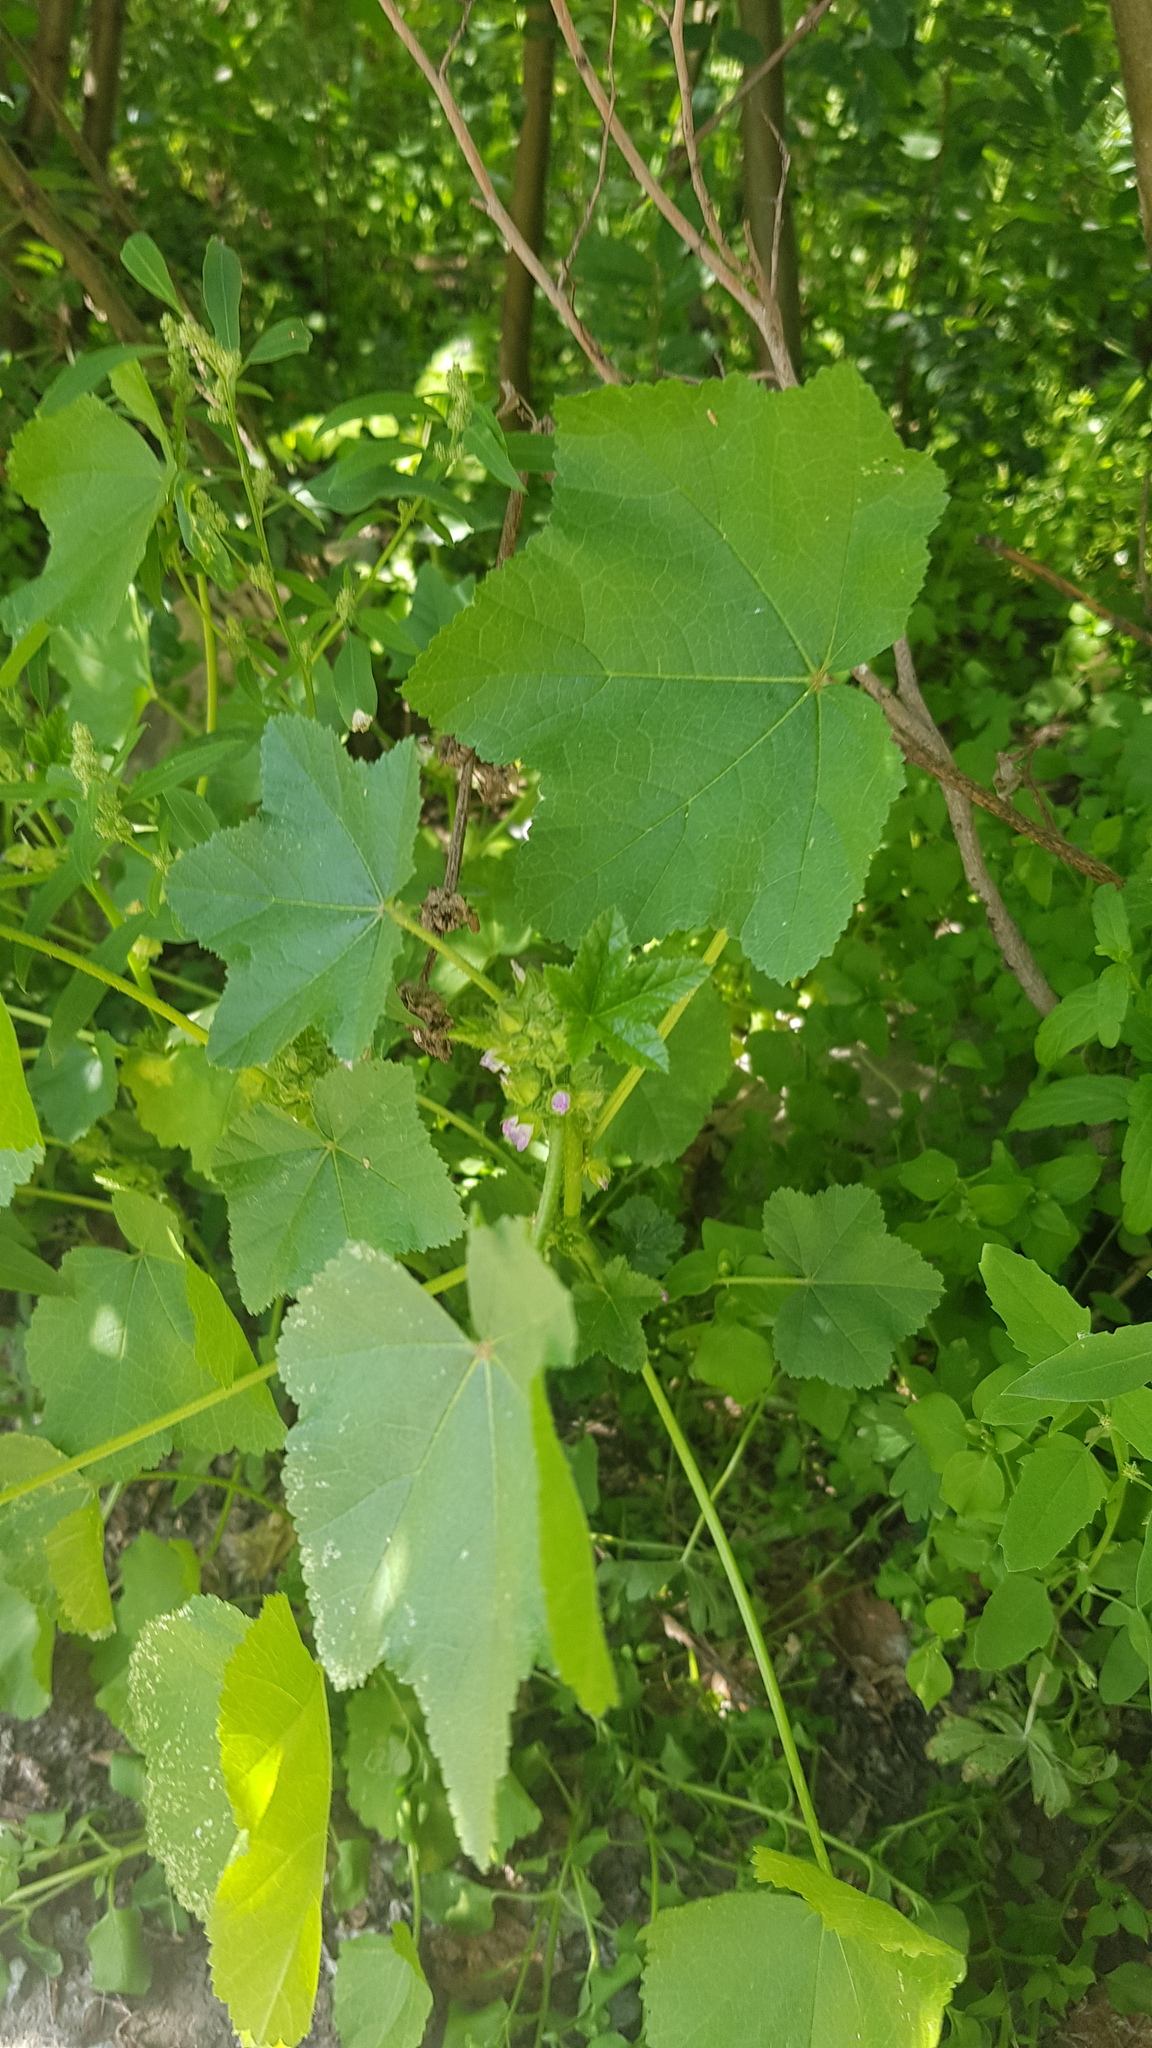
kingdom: Plantae
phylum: Tracheophyta
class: Magnoliopsida
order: Malvales
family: Malvaceae
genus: Malva
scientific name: Malva verticillata
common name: Chinese mallow
